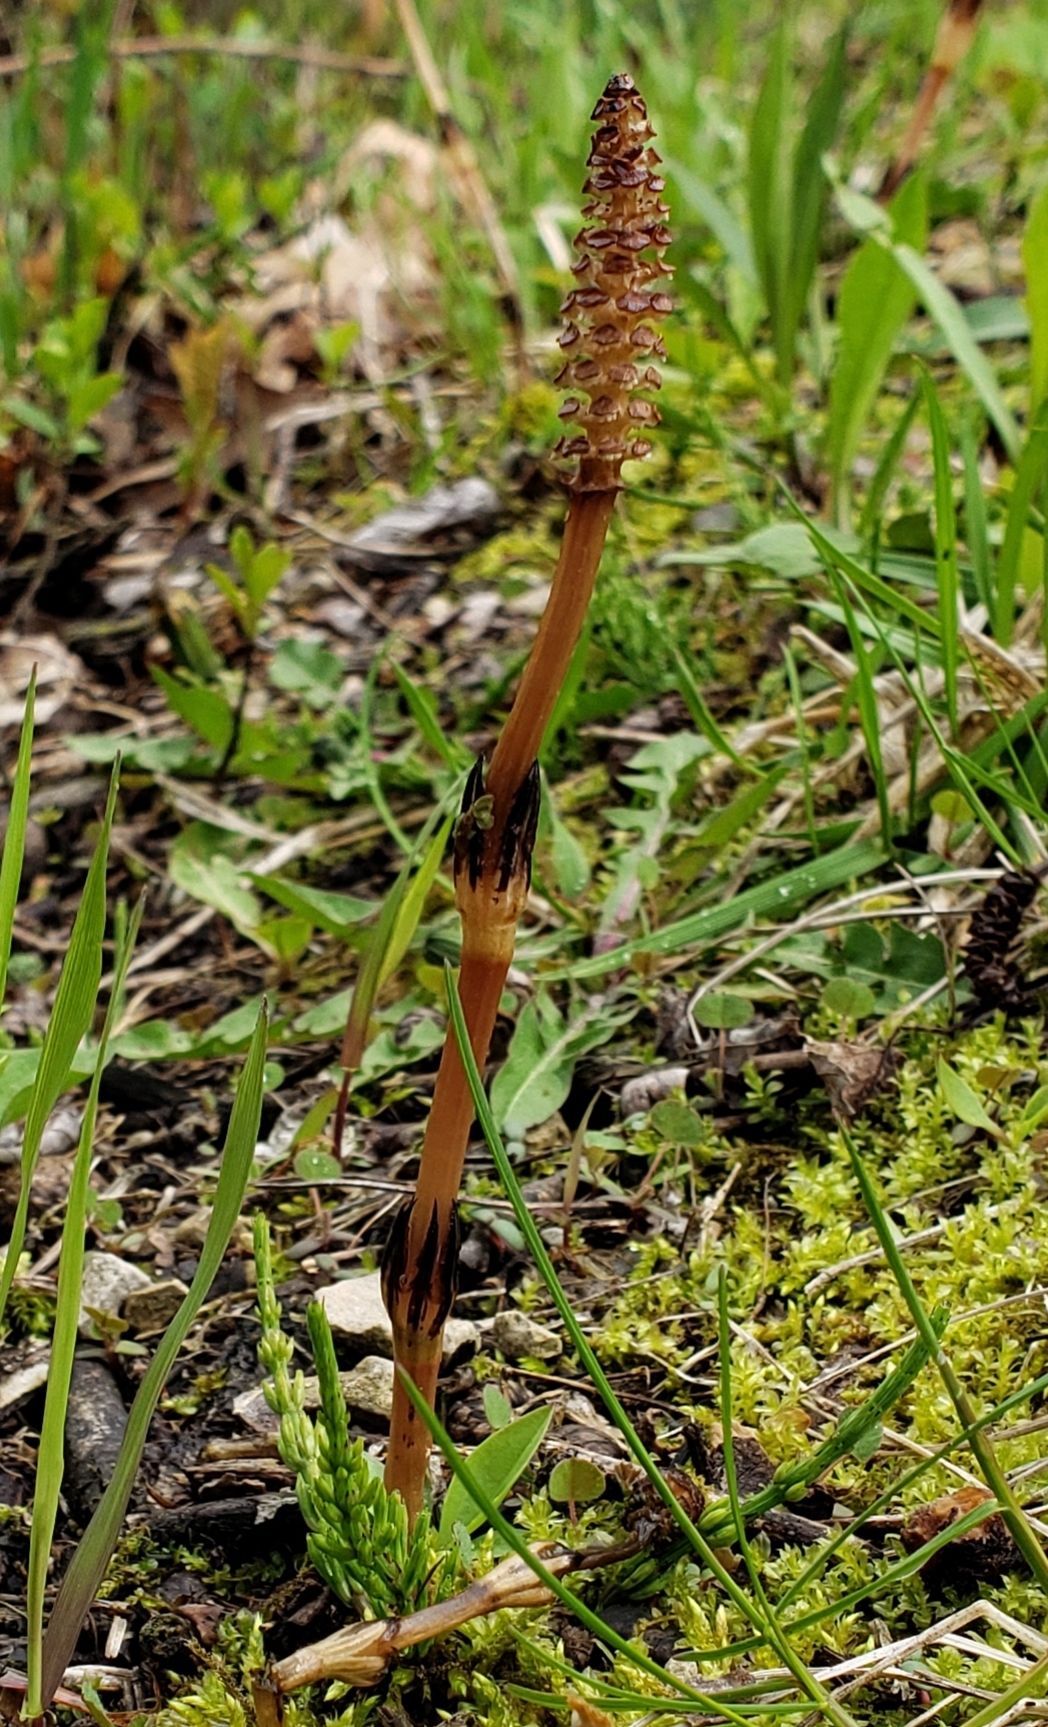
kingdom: Plantae
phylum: Tracheophyta
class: Polypodiopsida
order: Equisetales
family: Equisetaceae
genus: Equisetum
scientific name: Equisetum arvense
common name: Field horsetail
